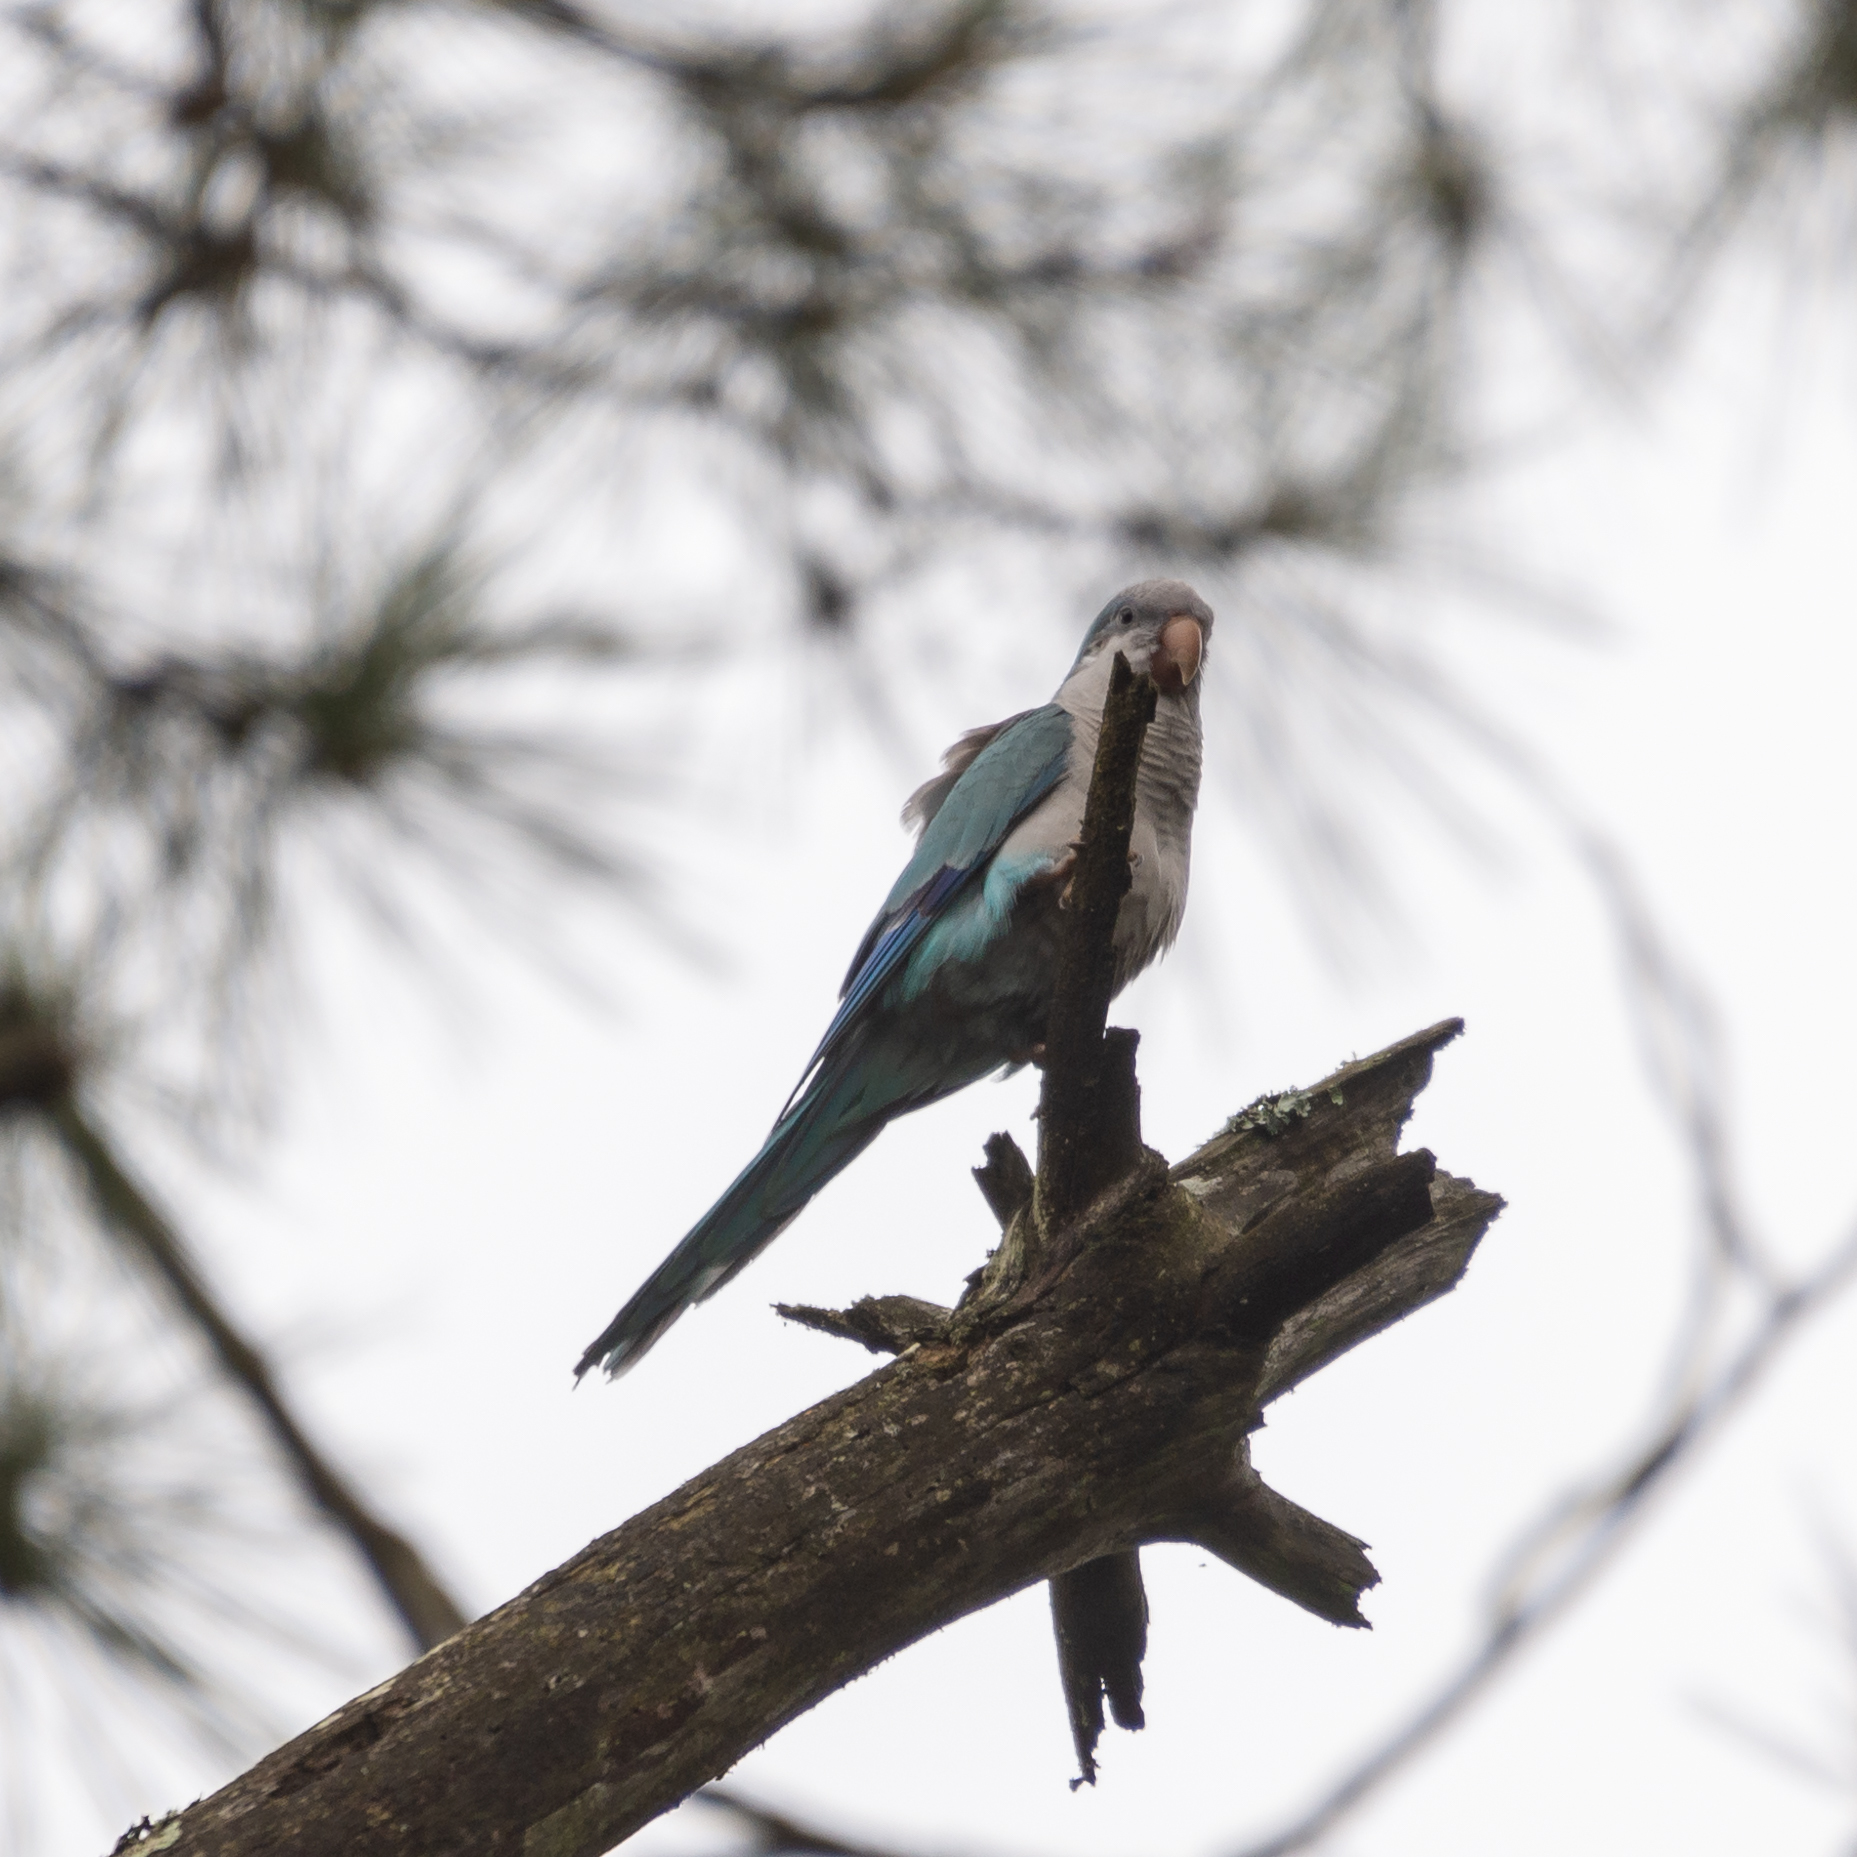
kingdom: Animalia
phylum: Chordata
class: Aves
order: Psittaciformes
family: Psittacidae
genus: Myiopsitta
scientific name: Myiopsitta monachus
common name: Monk parakeet
